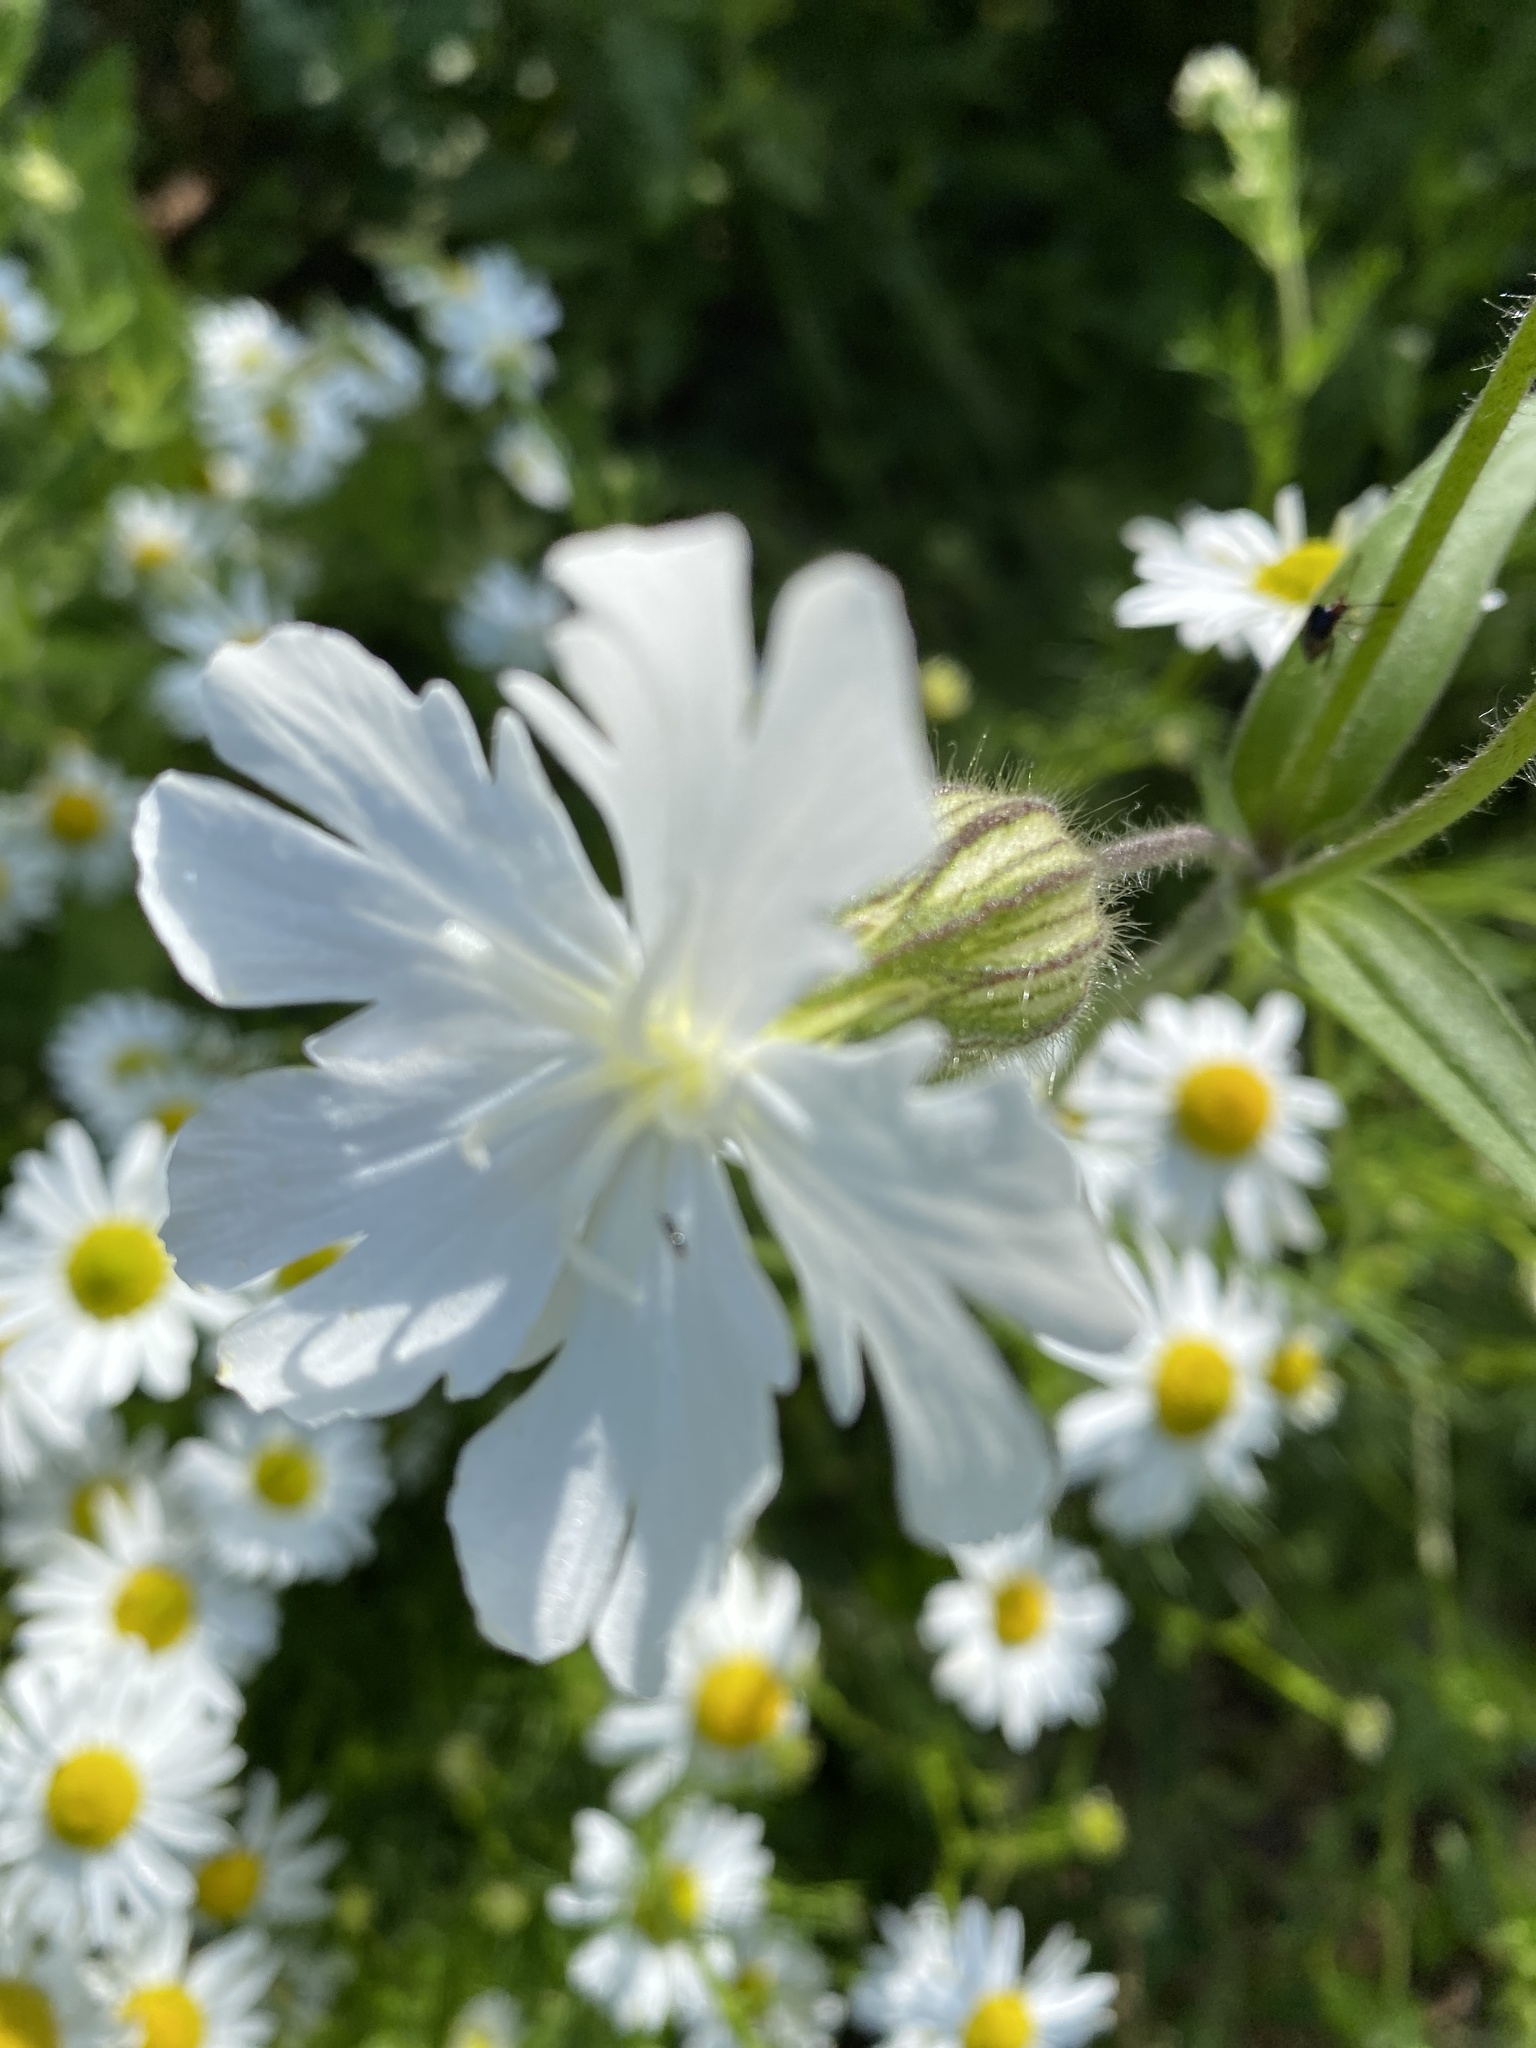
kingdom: Plantae
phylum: Tracheophyta
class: Magnoliopsida
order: Caryophyllales
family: Caryophyllaceae
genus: Silene
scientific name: Silene latifolia
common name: White campion
